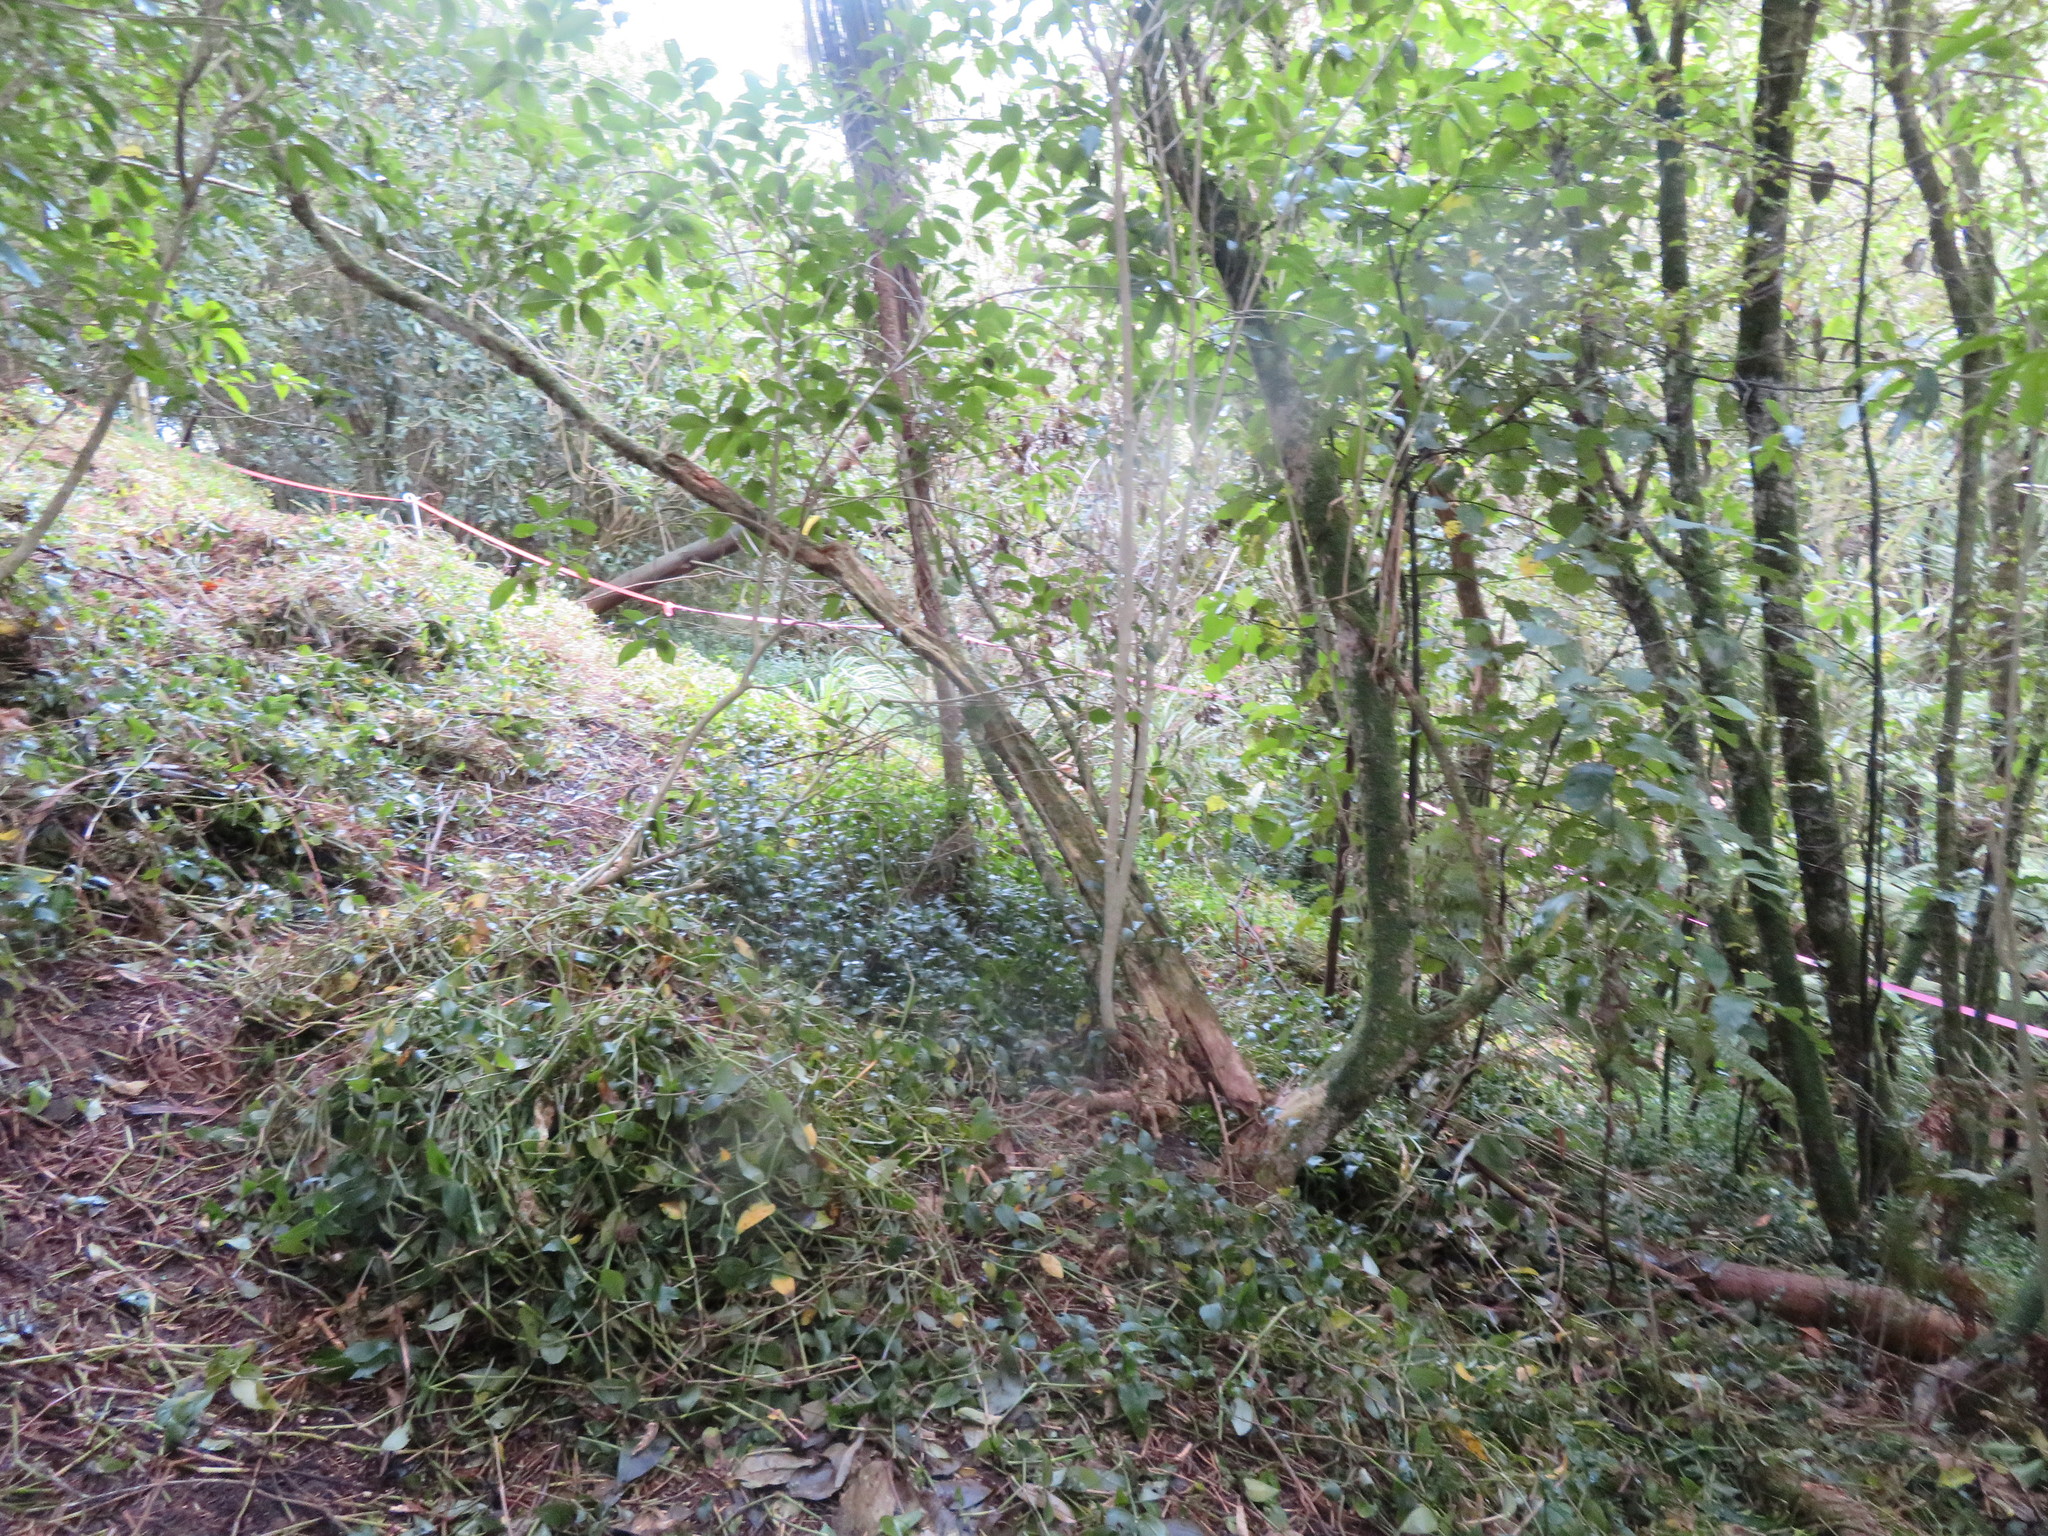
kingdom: Plantae
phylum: Tracheophyta
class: Magnoliopsida
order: Malpighiales
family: Violaceae
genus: Melicytus
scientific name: Melicytus ramiflorus
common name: Mahoe
